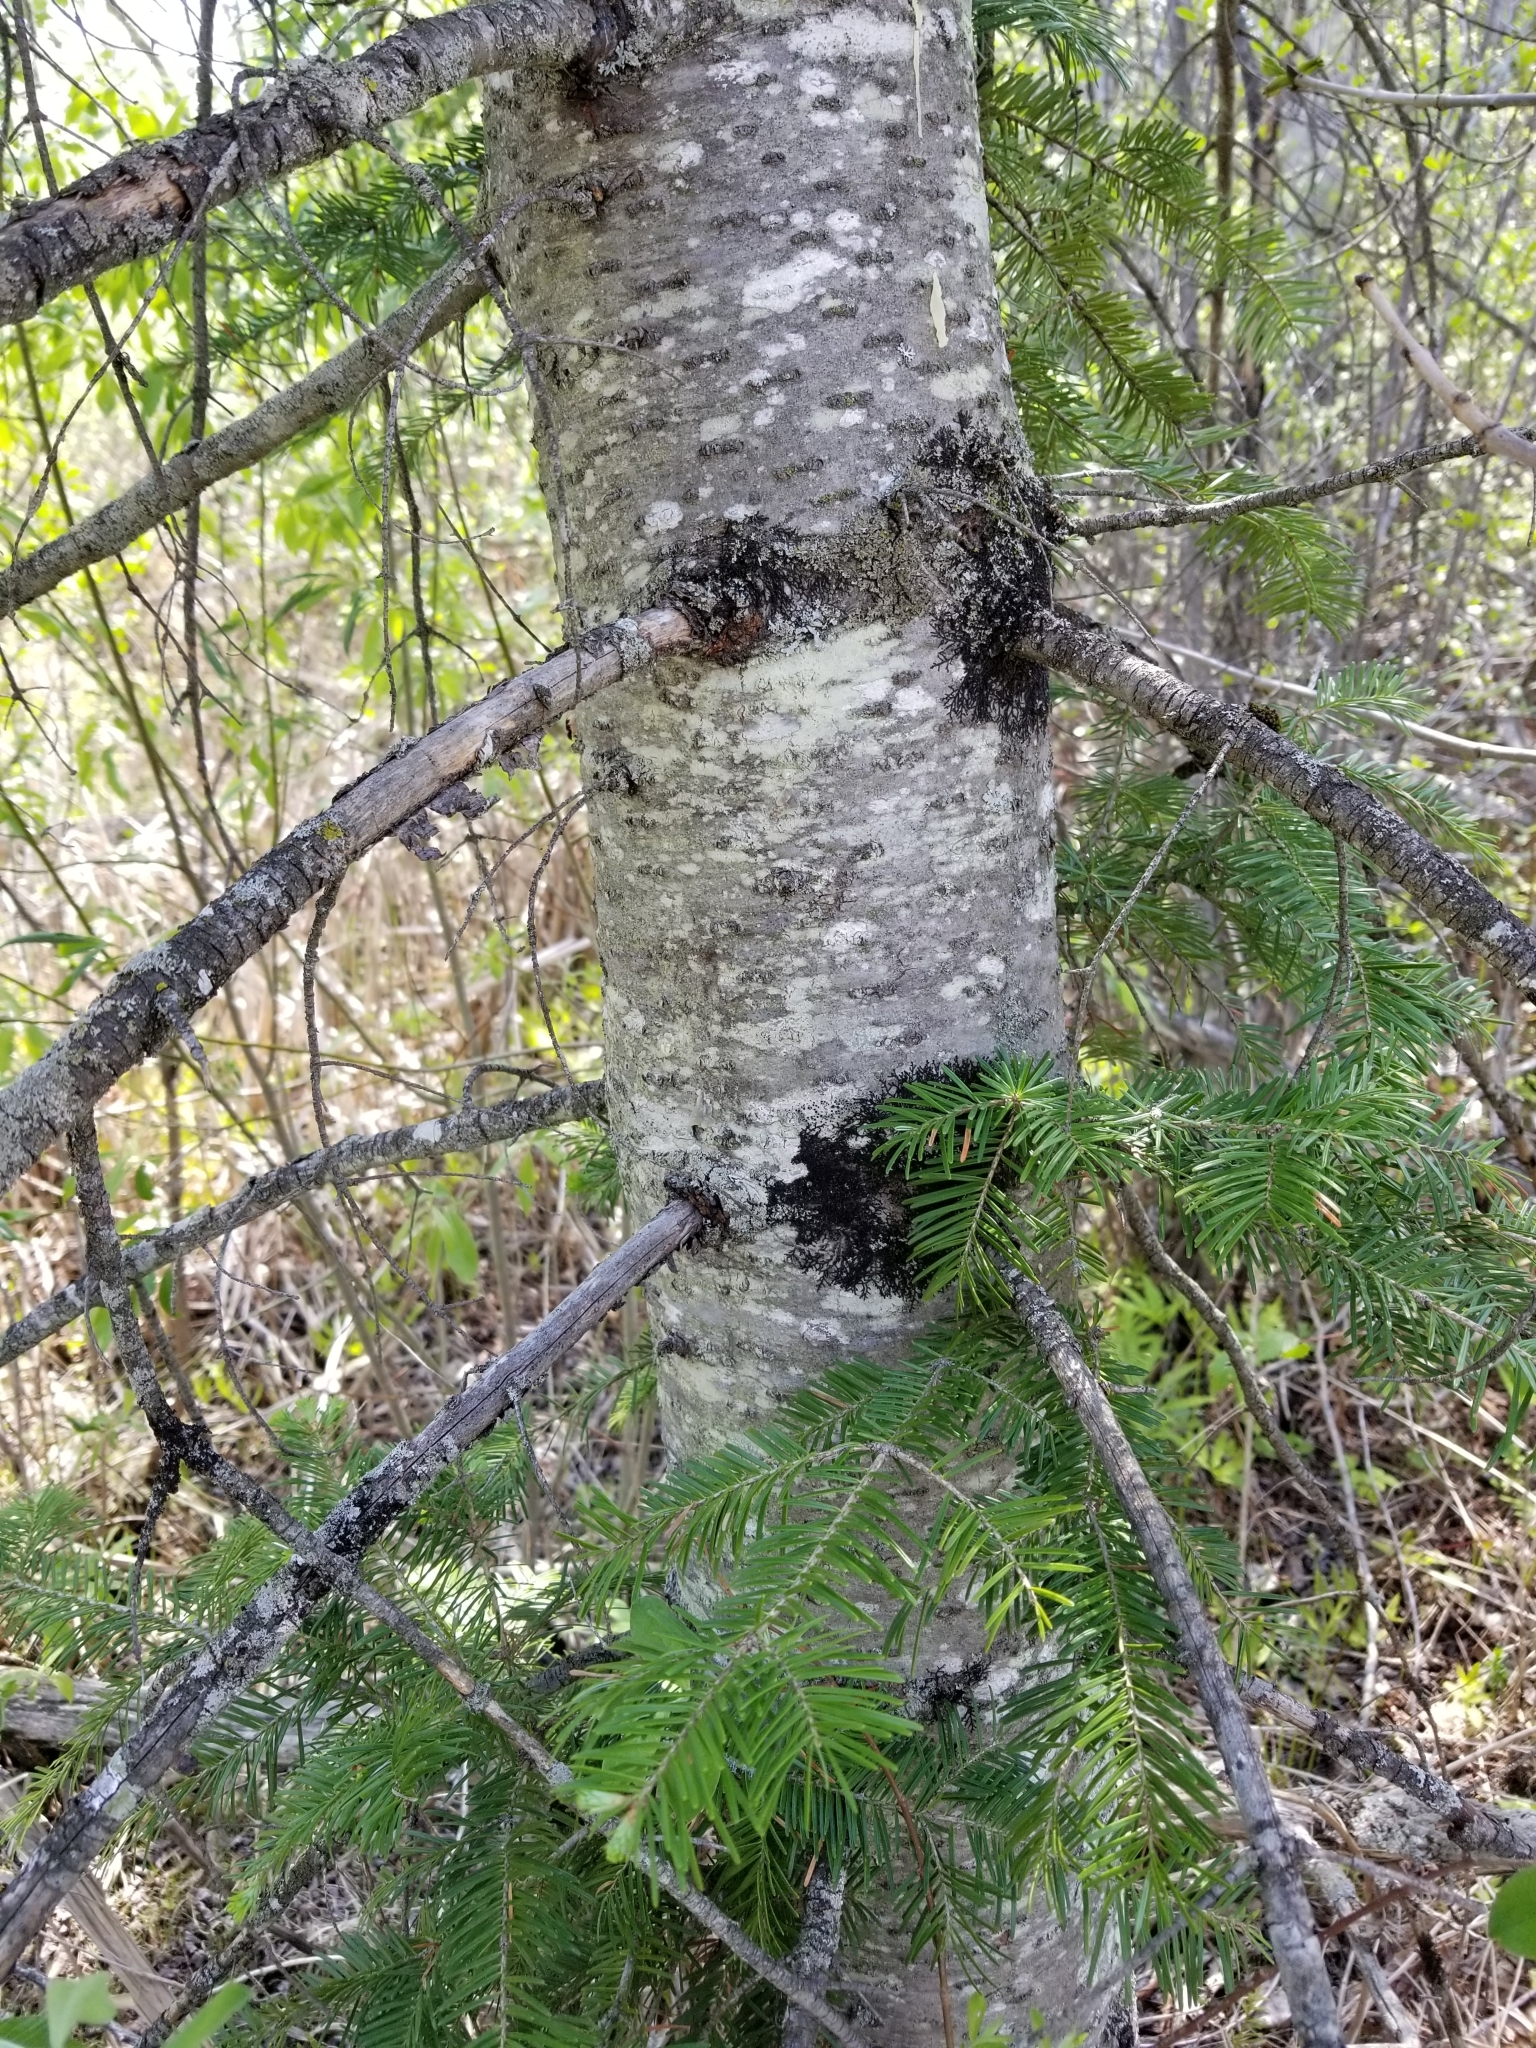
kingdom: Plantae
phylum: Tracheophyta
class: Pinopsida
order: Pinales
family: Pinaceae
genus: Abies
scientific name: Abies balsamea
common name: Balsam fir
